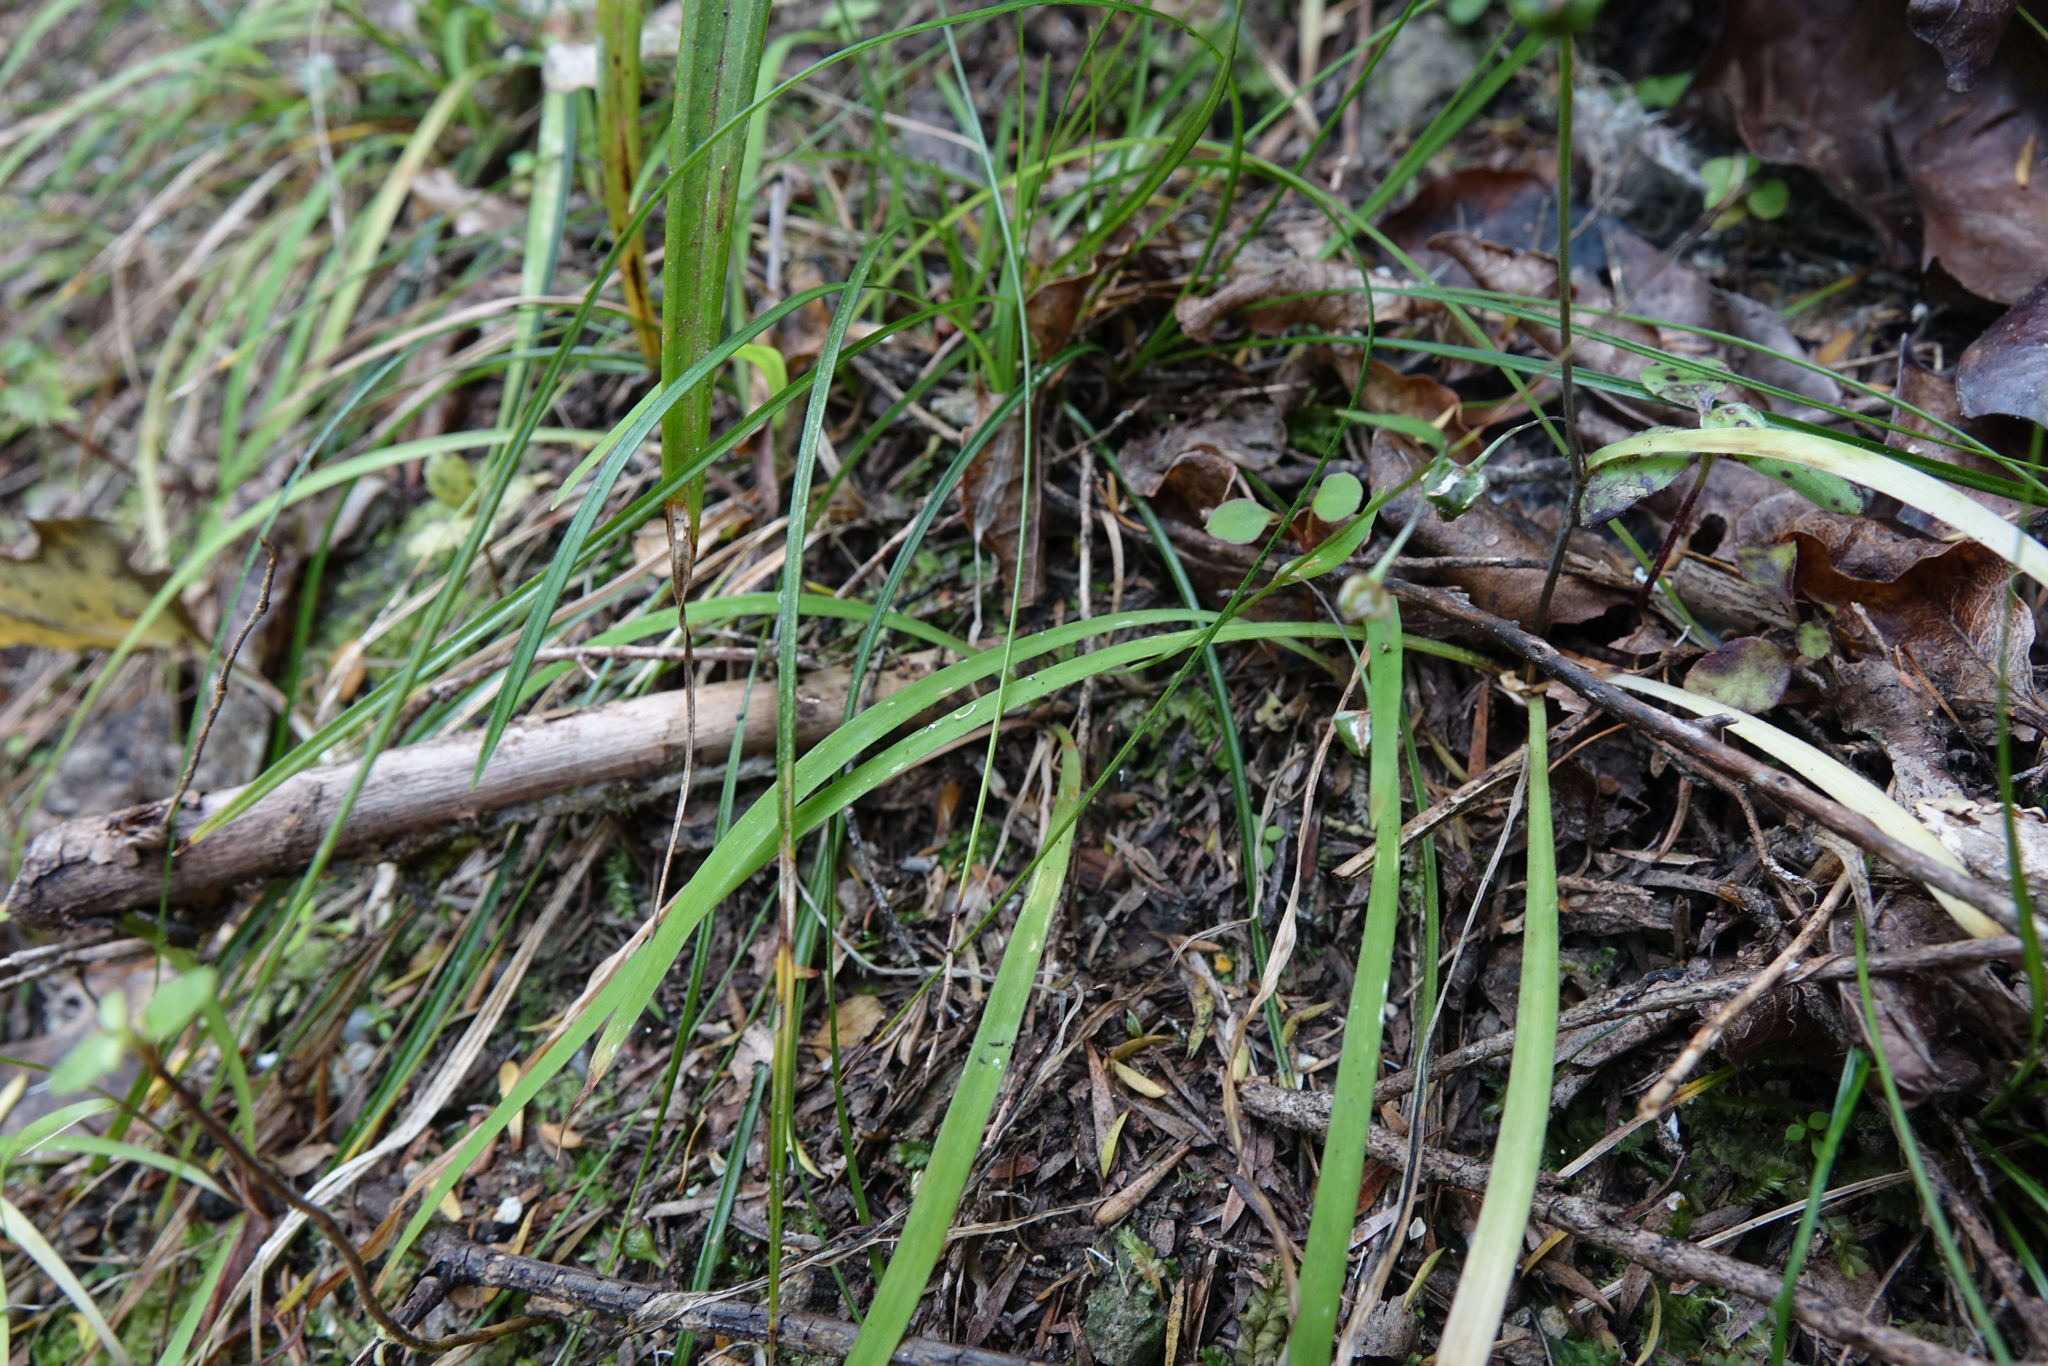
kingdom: Plantae
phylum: Tracheophyta
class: Liliopsida
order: Asparagales
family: Asparagaceae
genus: Arthropodium
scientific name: Arthropodium candidum
